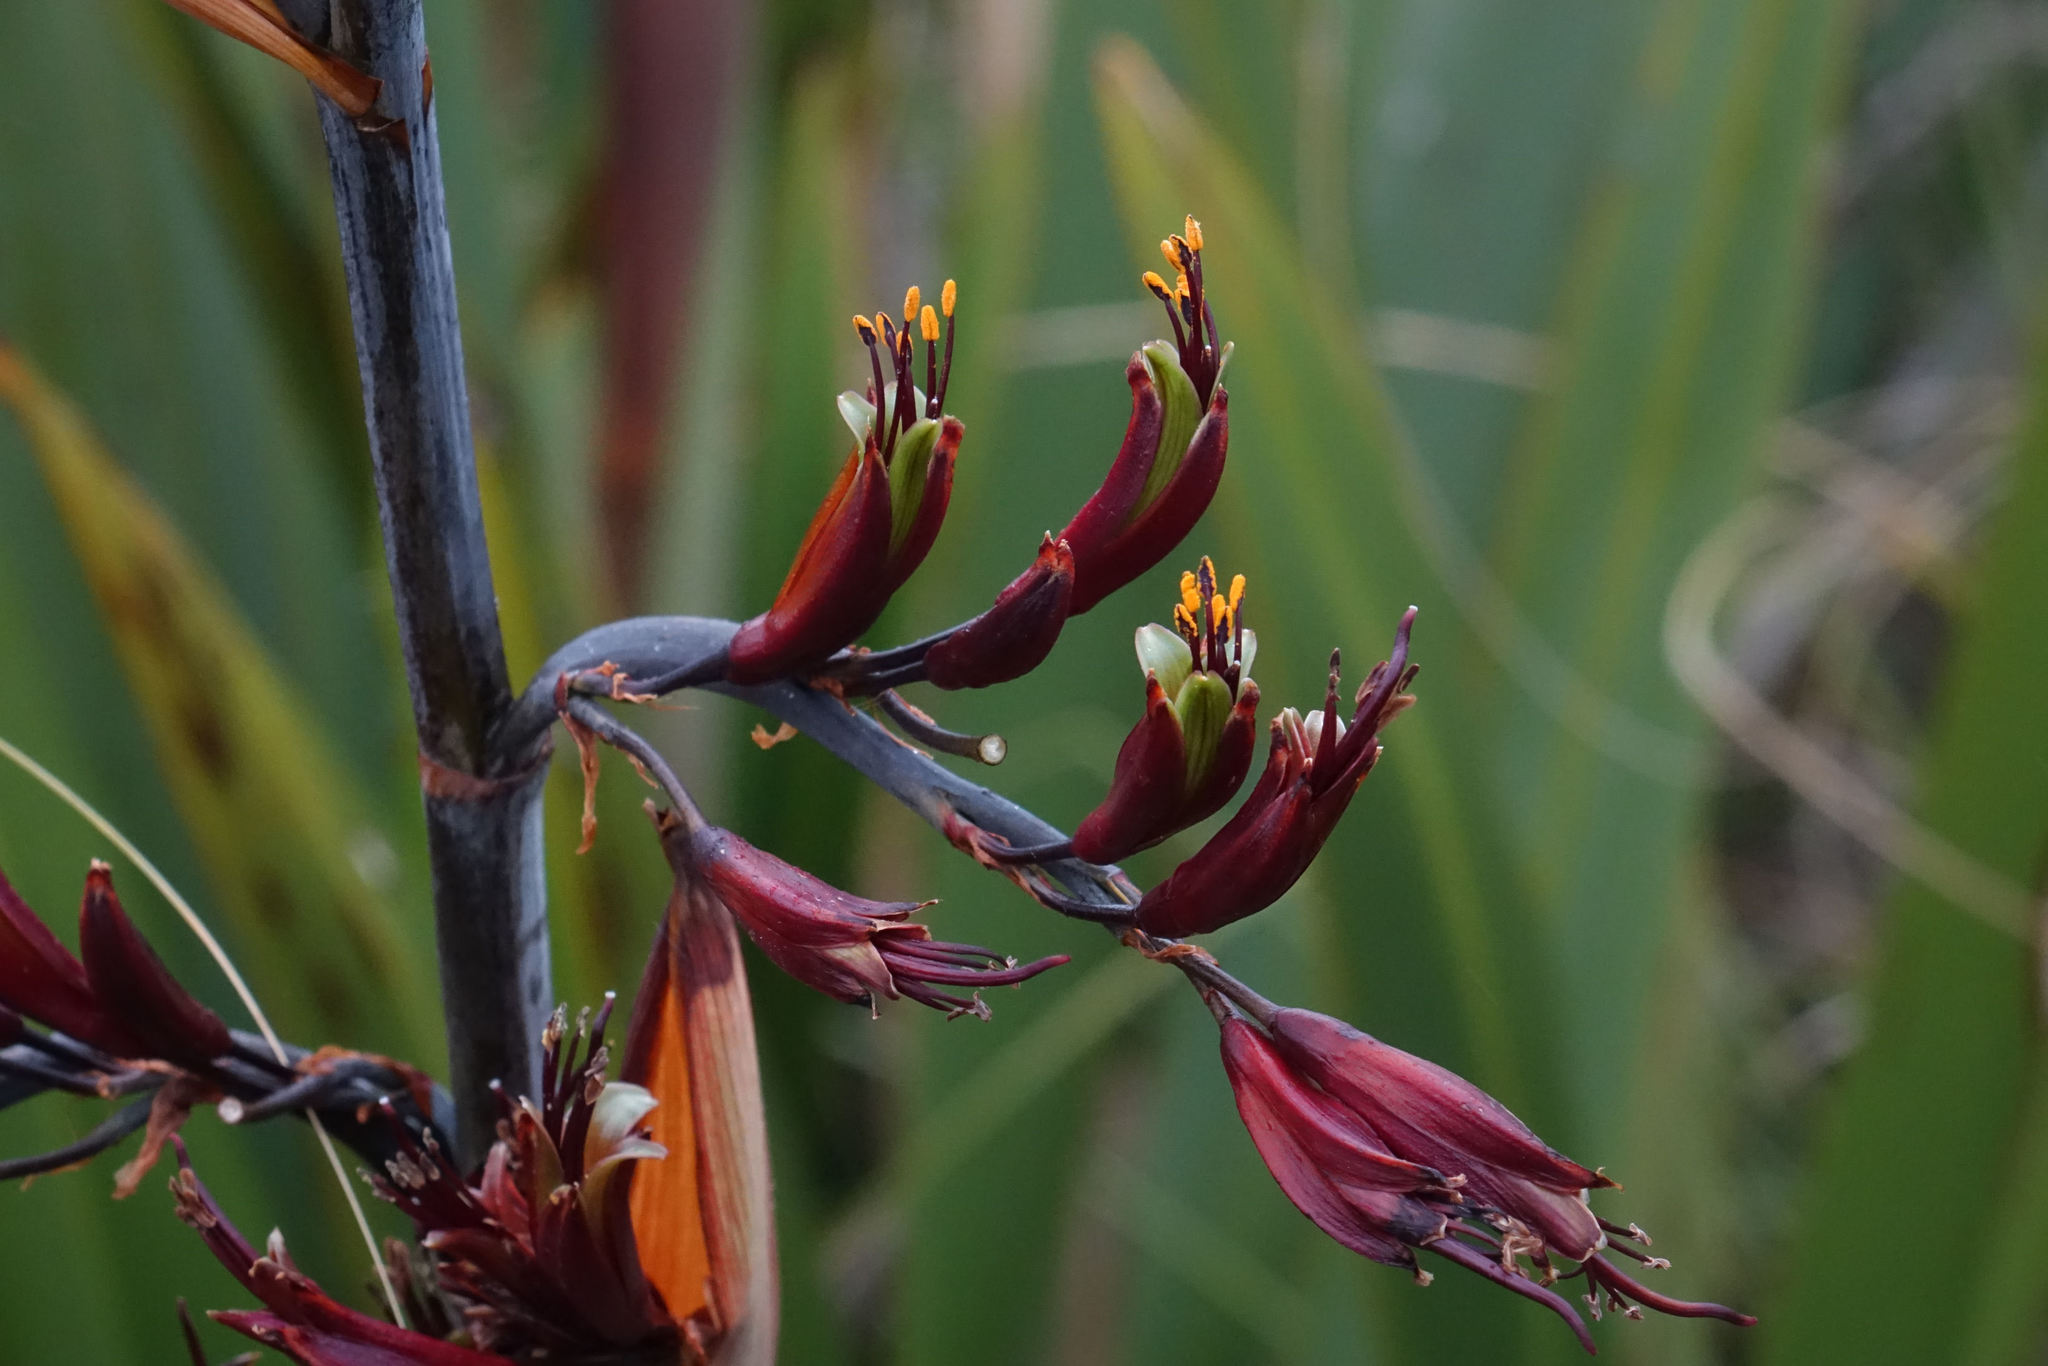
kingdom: Plantae
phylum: Tracheophyta
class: Liliopsida
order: Asparagales
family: Asphodelaceae
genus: Phormium
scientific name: Phormium colensoi
